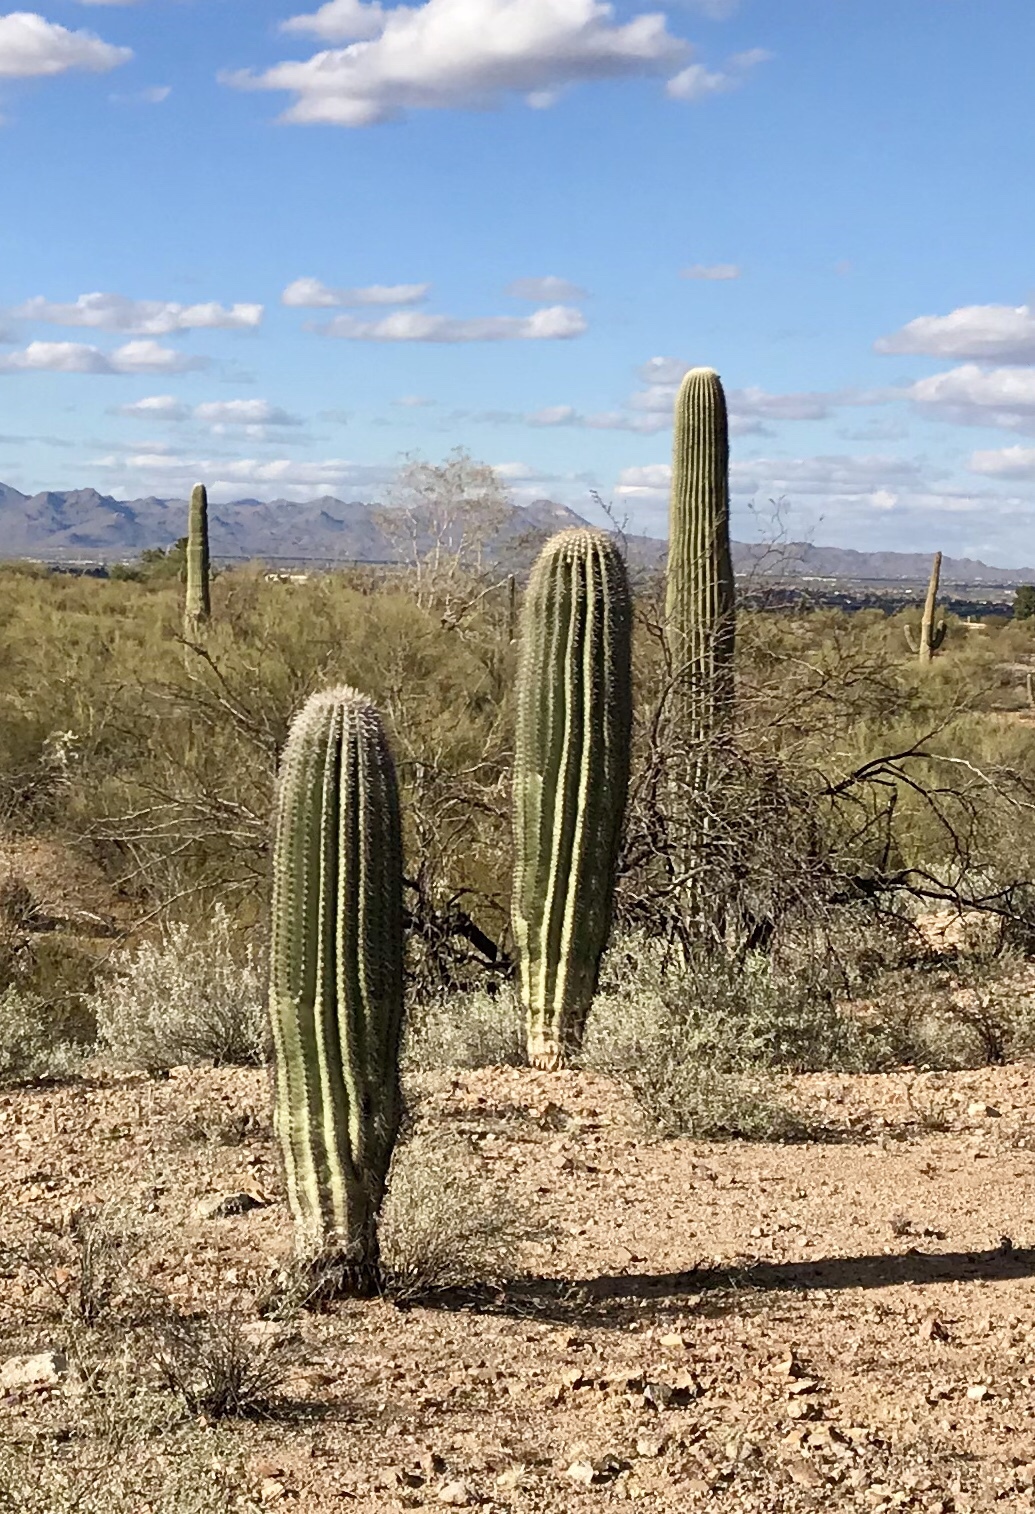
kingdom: Plantae
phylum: Tracheophyta
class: Magnoliopsida
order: Caryophyllales
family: Cactaceae
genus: Carnegiea
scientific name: Carnegiea gigantea
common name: Saguaro
